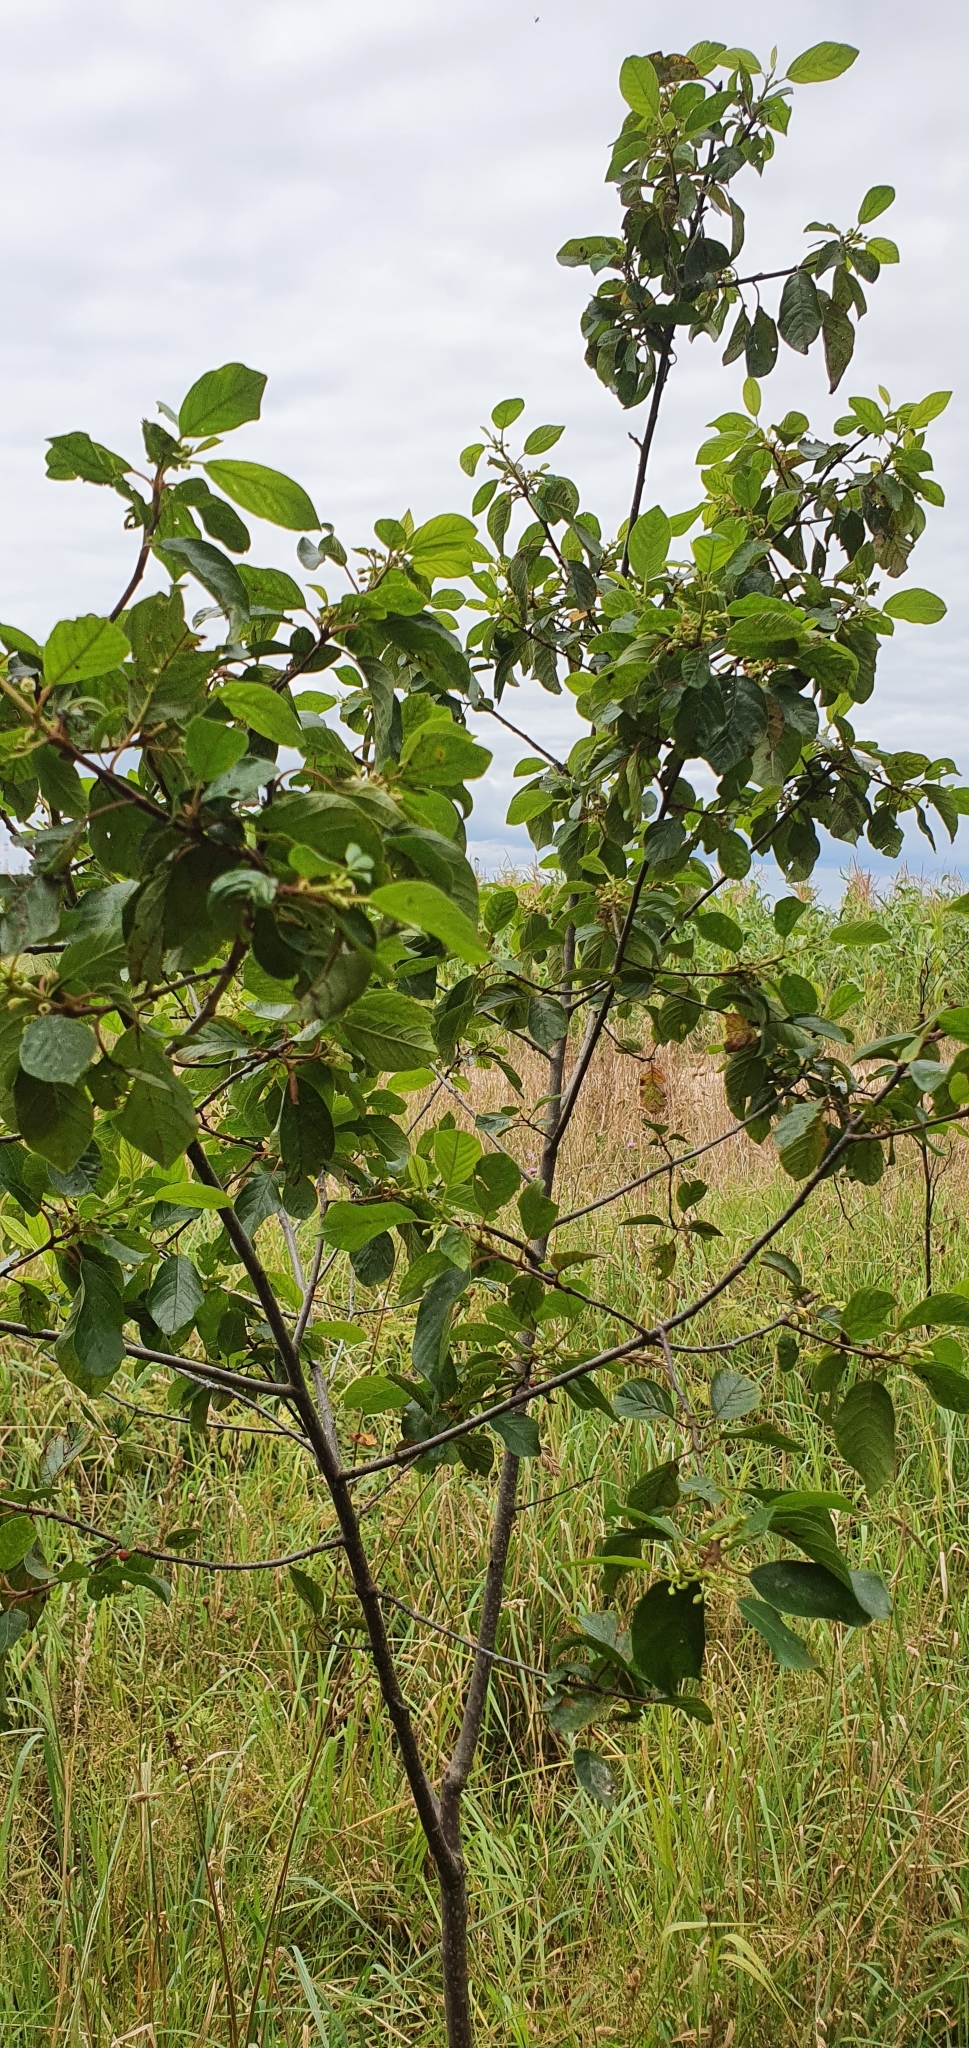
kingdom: Plantae
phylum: Tracheophyta
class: Magnoliopsida
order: Rosales
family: Rhamnaceae
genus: Frangula
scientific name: Frangula alnus
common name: Alder buckthorn
